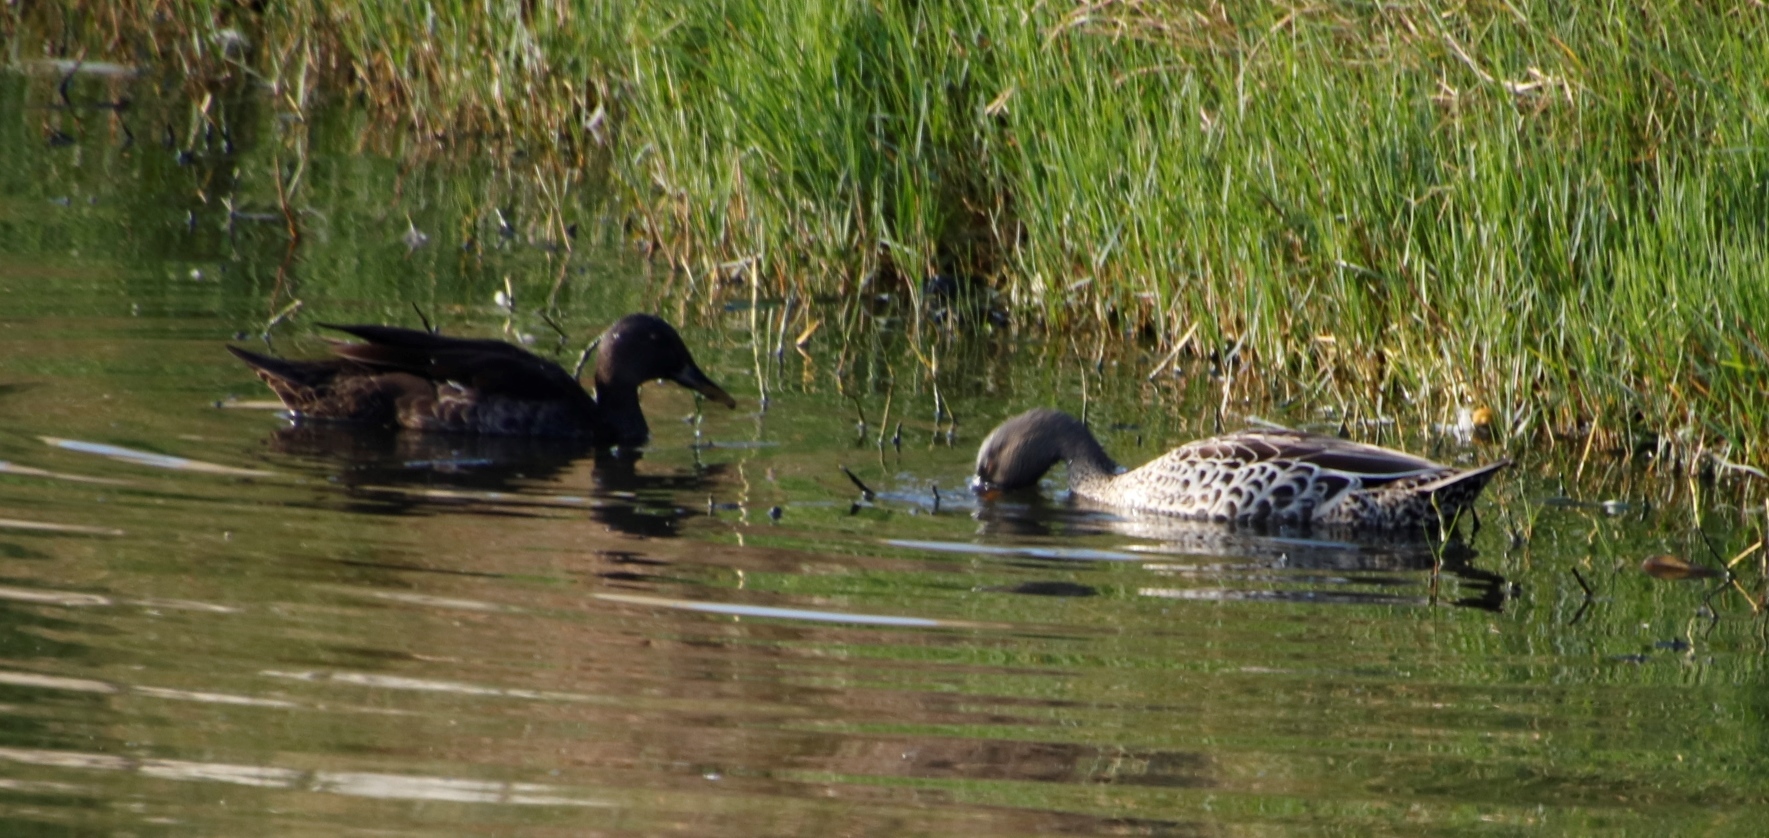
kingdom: Animalia
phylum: Chordata
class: Aves
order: Anseriformes
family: Anatidae
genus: Anas
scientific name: Anas undulata
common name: Yellow-billed duck
